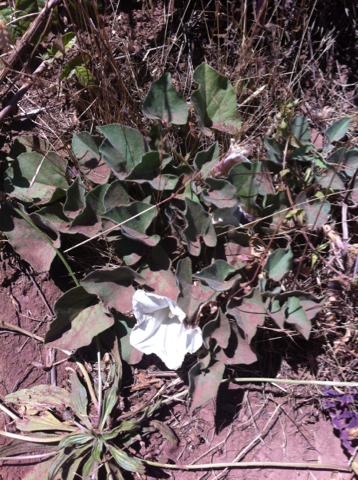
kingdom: Plantae
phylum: Tracheophyta
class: Magnoliopsida
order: Solanales
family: Convolvulaceae
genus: Calystegia
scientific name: Calystegia subacaulis
